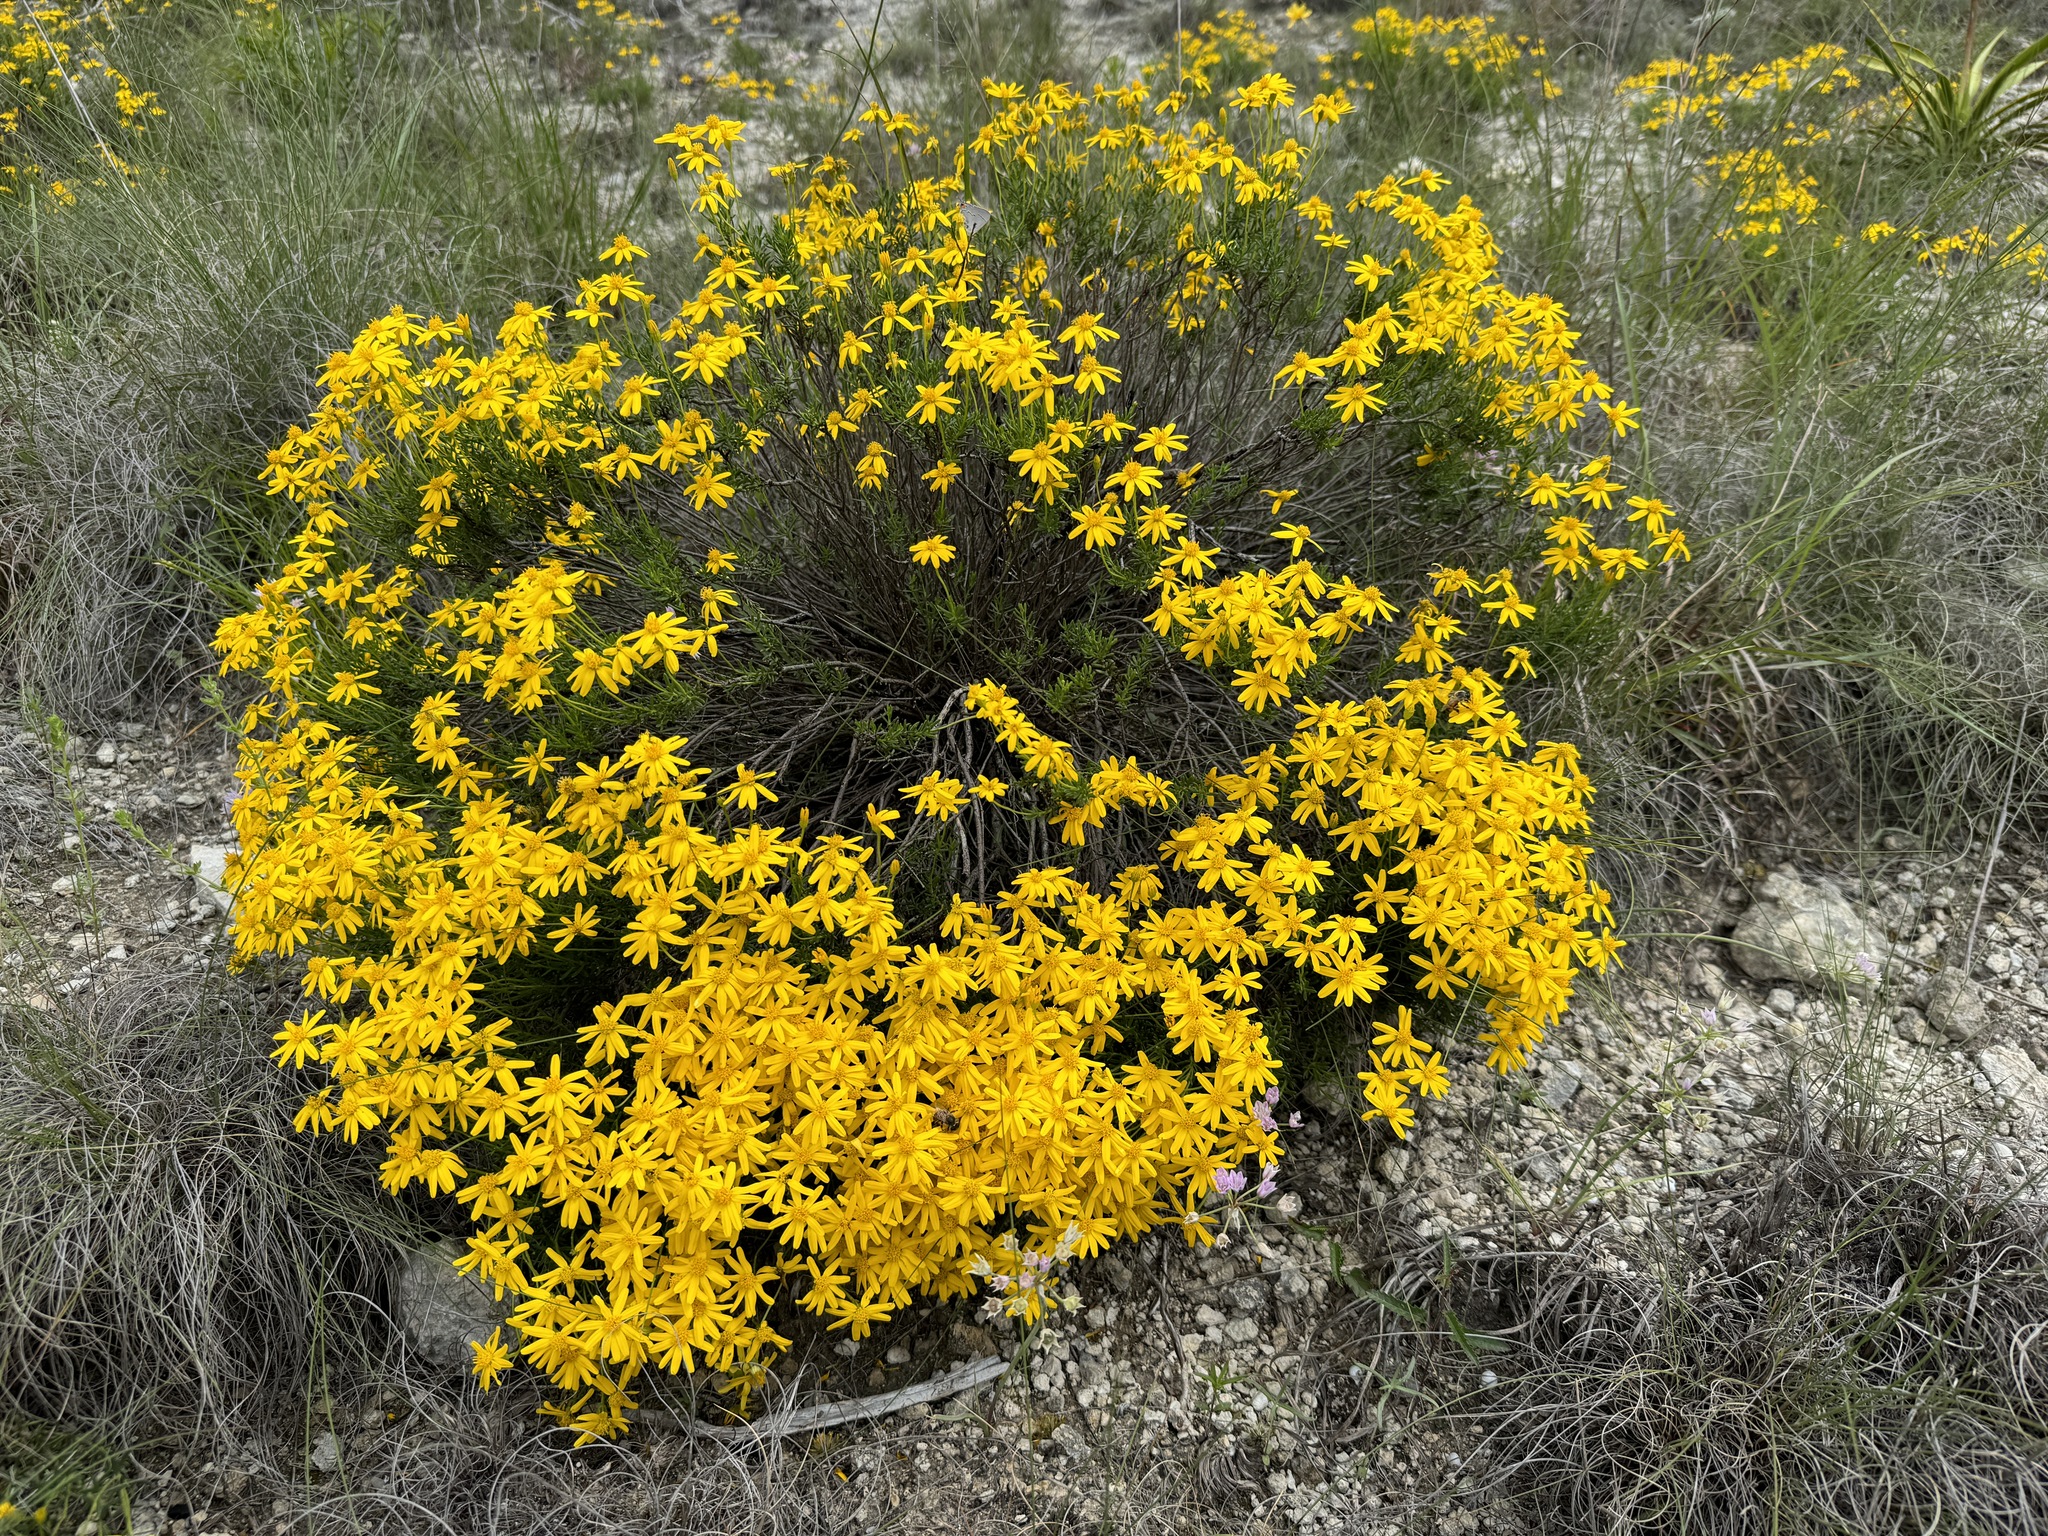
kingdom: Plantae
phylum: Tracheophyta
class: Magnoliopsida
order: Asterales
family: Asteraceae
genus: Chrysactinia
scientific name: Chrysactinia mexicana
